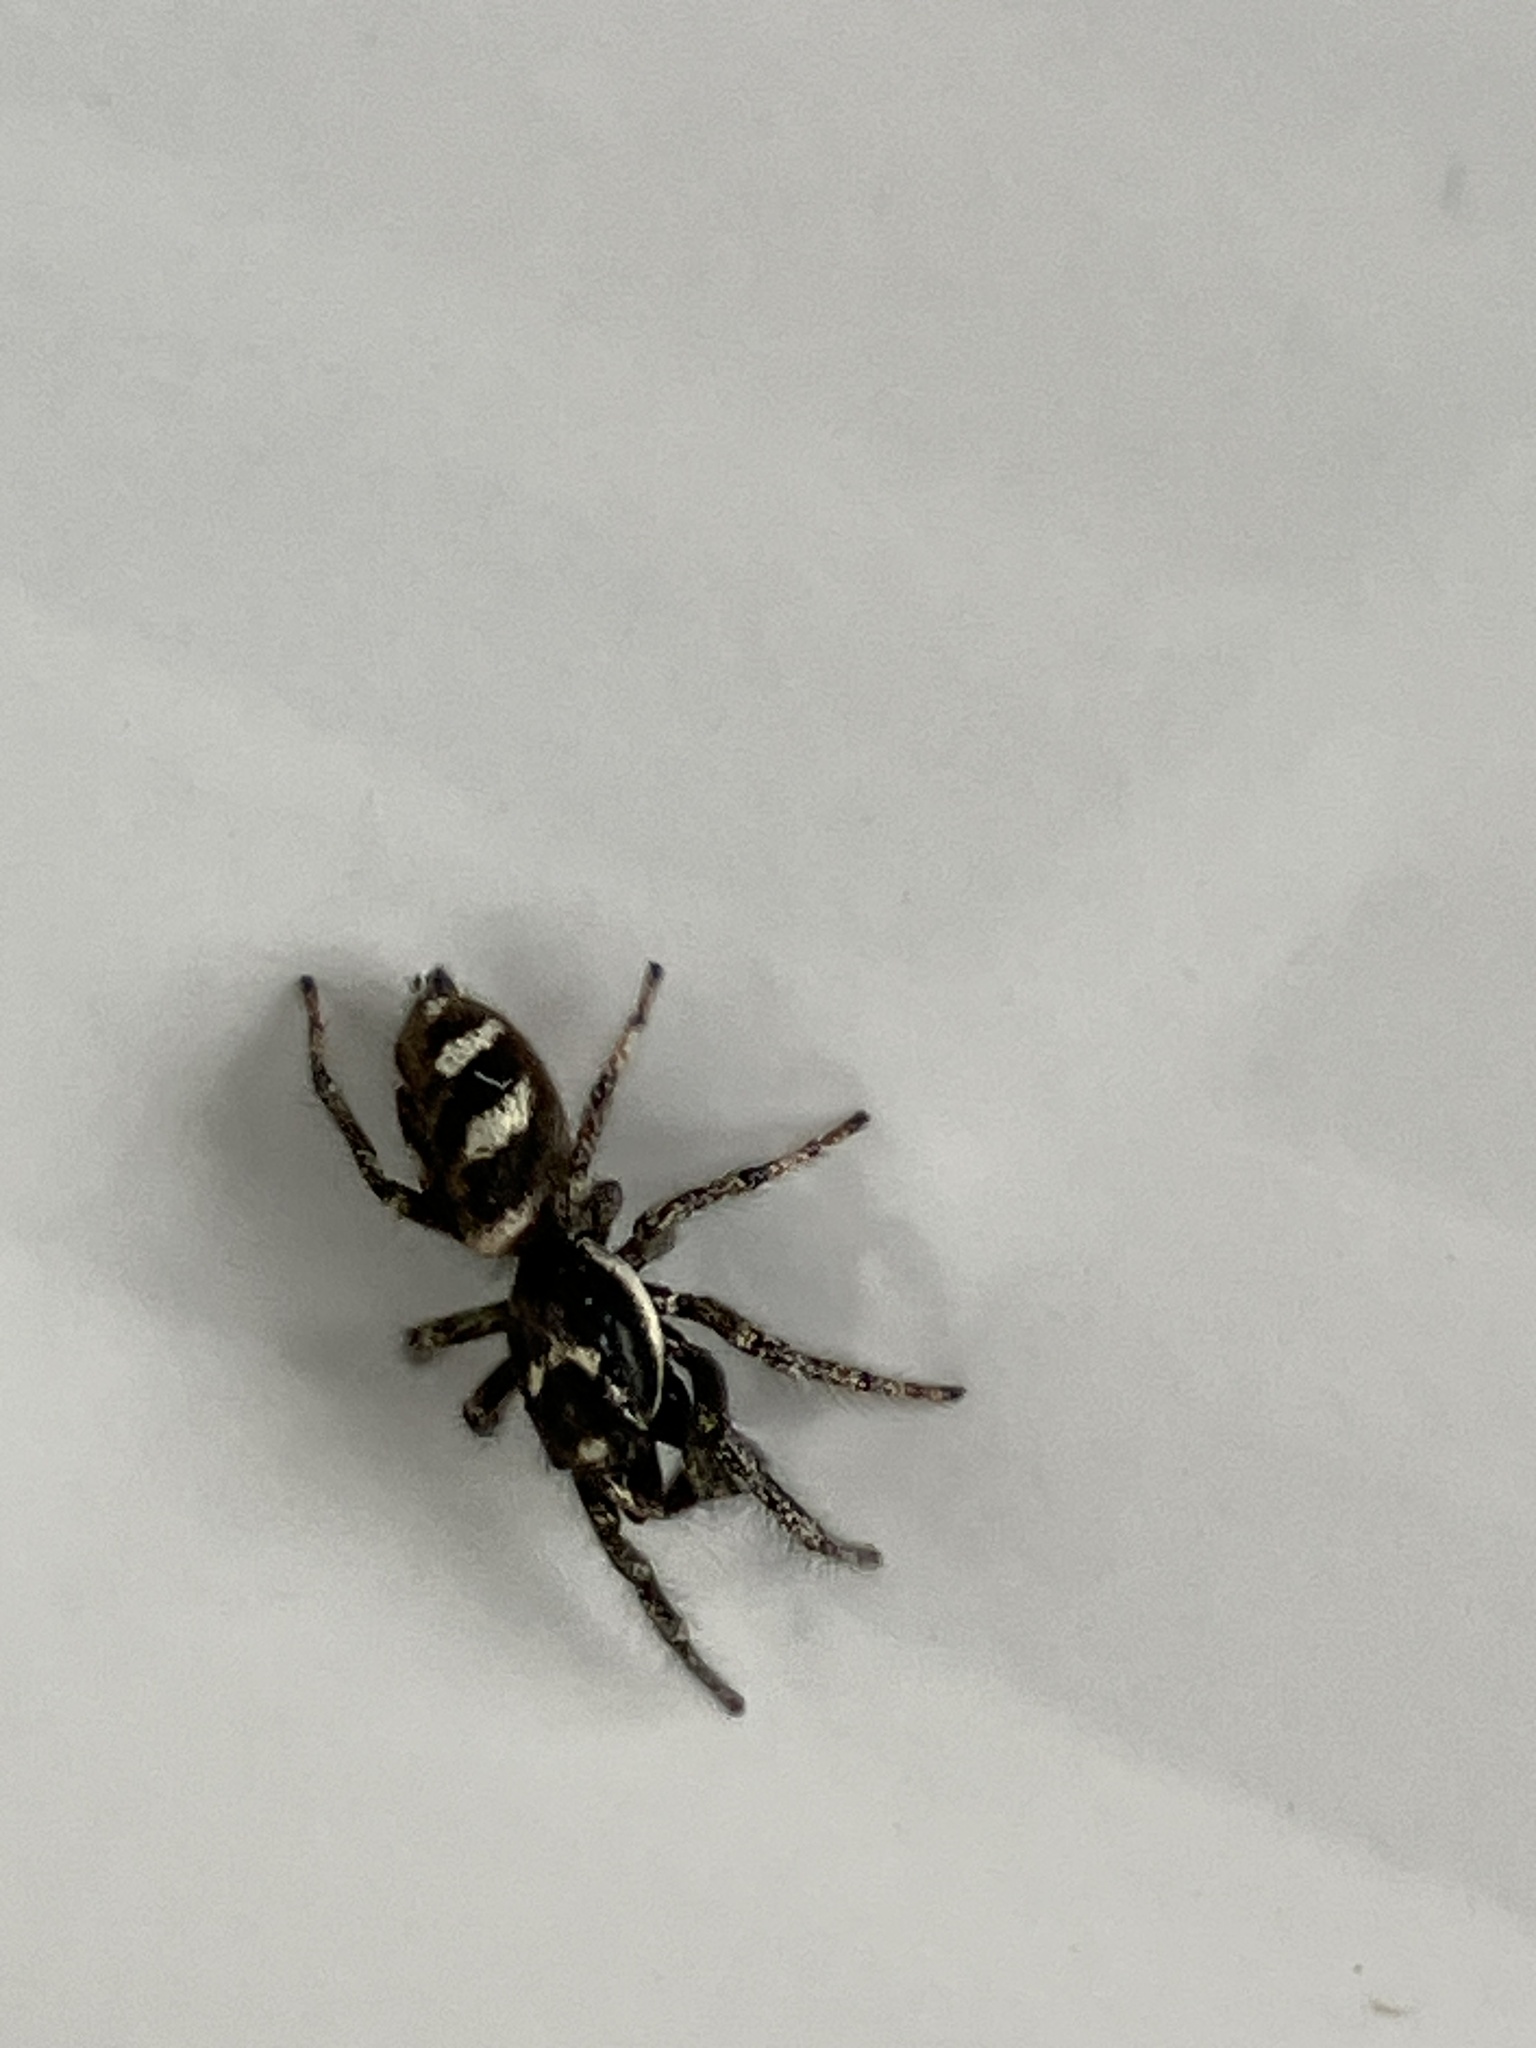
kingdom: Animalia
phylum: Arthropoda
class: Arachnida
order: Araneae
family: Salticidae
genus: Salticus
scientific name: Salticus scenicus
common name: Zebra jumper
